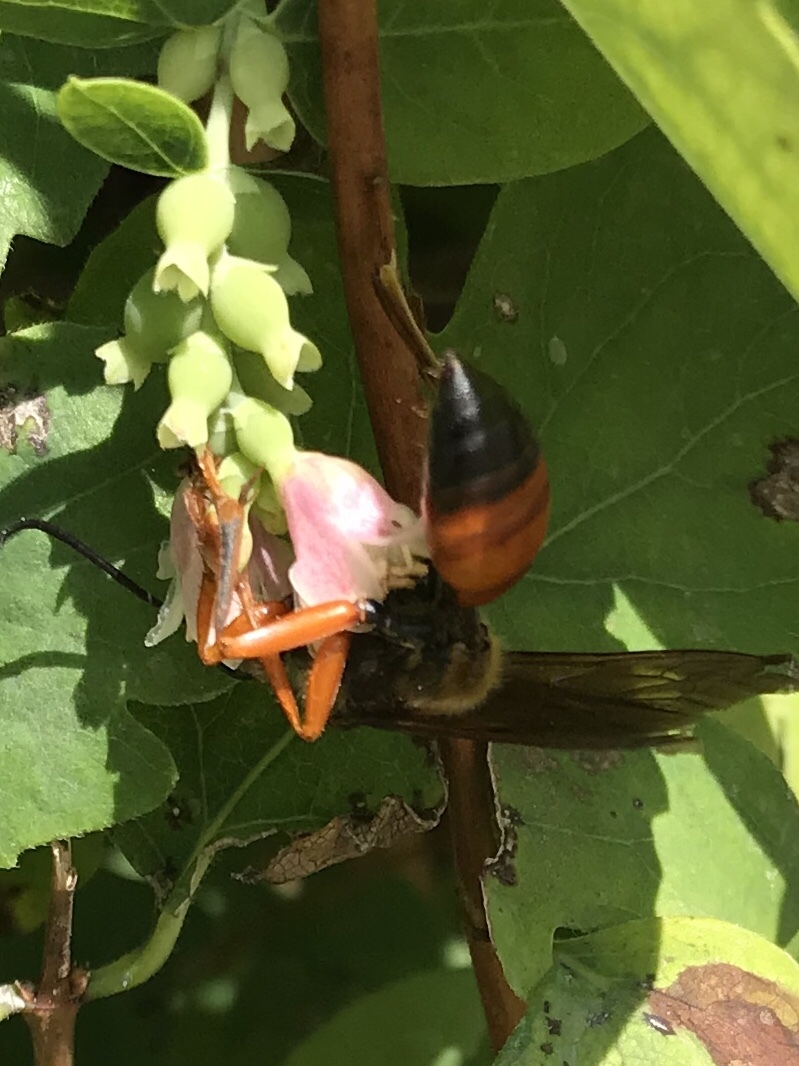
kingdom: Animalia
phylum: Arthropoda
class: Insecta
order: Hymenoptera
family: Sphecidae
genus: Sphex
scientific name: Sphex ichneumoneus
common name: Great golden digger wasp
